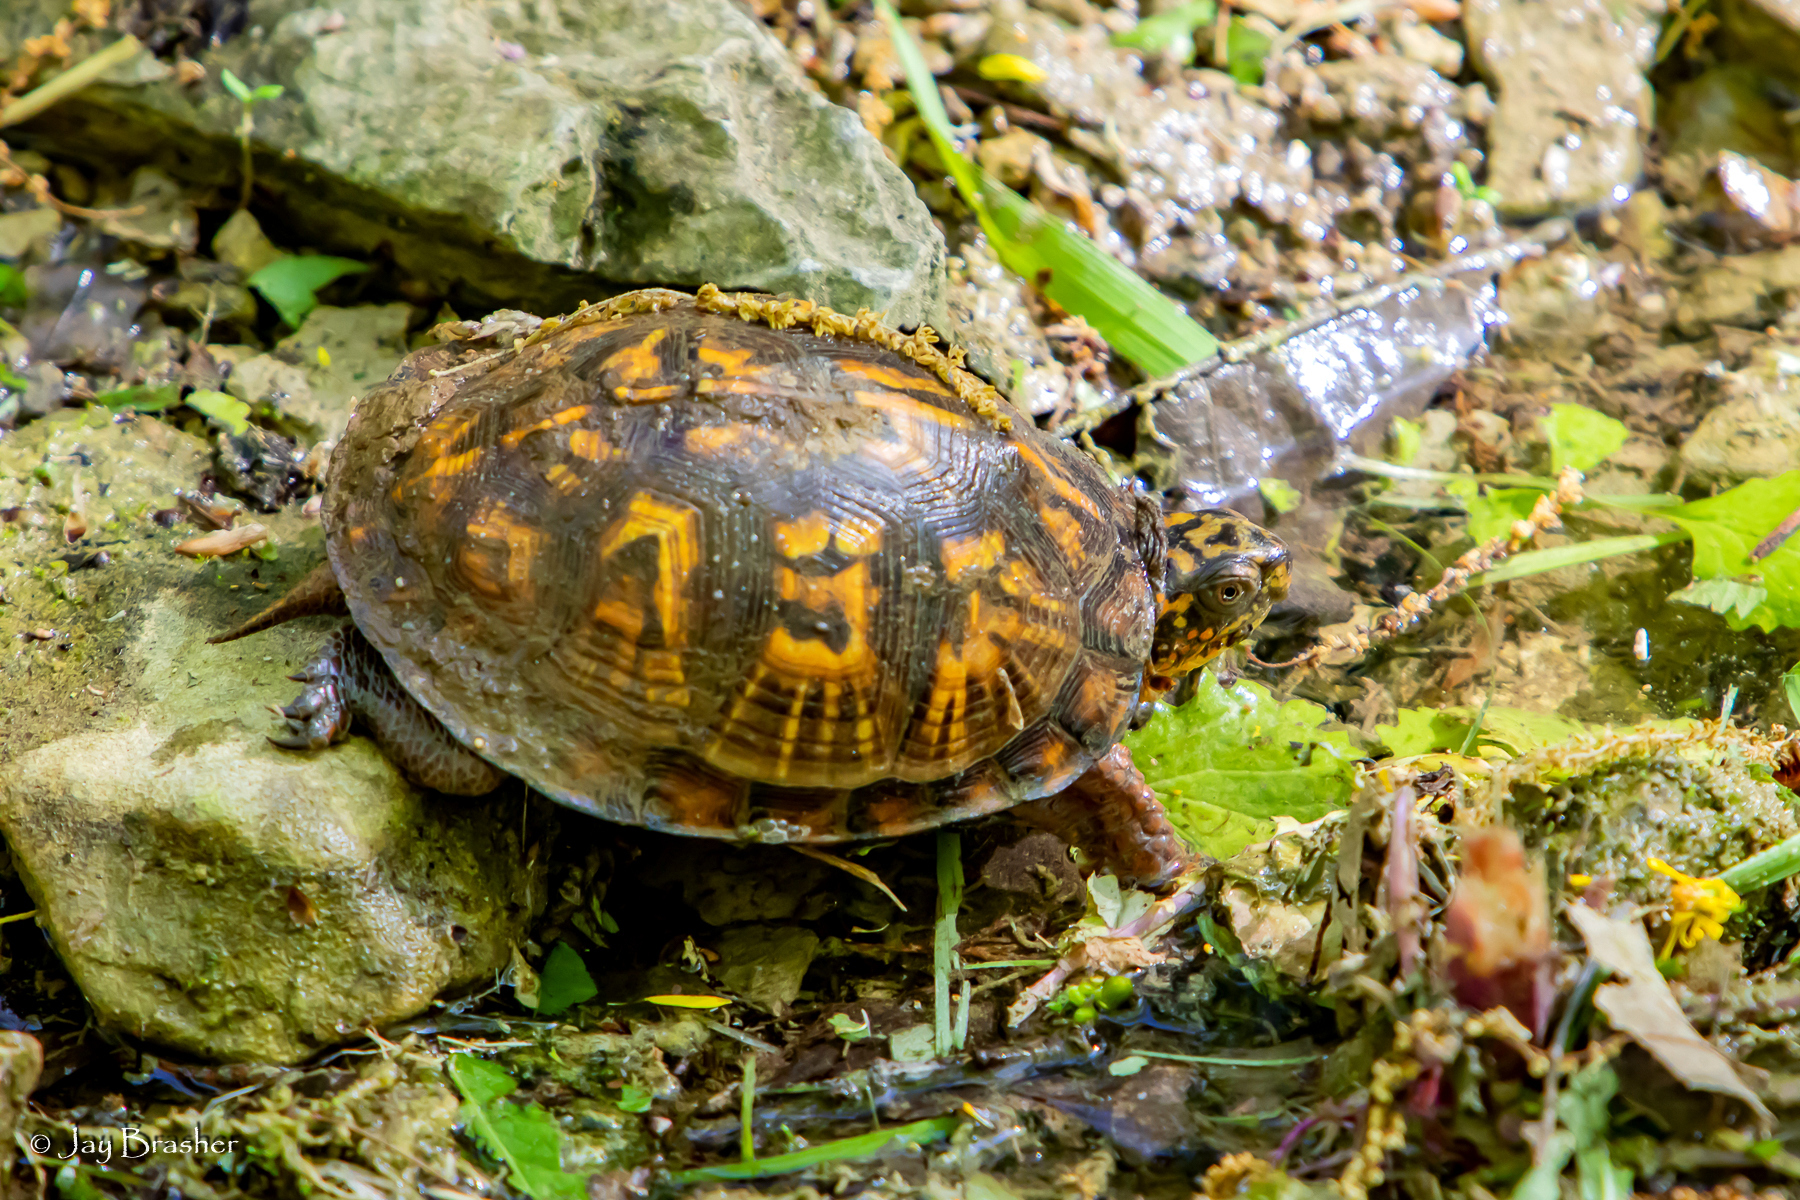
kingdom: Animalia
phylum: Chordata
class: Testudines
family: Emydidae
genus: Terrapene
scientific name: Terrapene carolina
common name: Common box turtle
